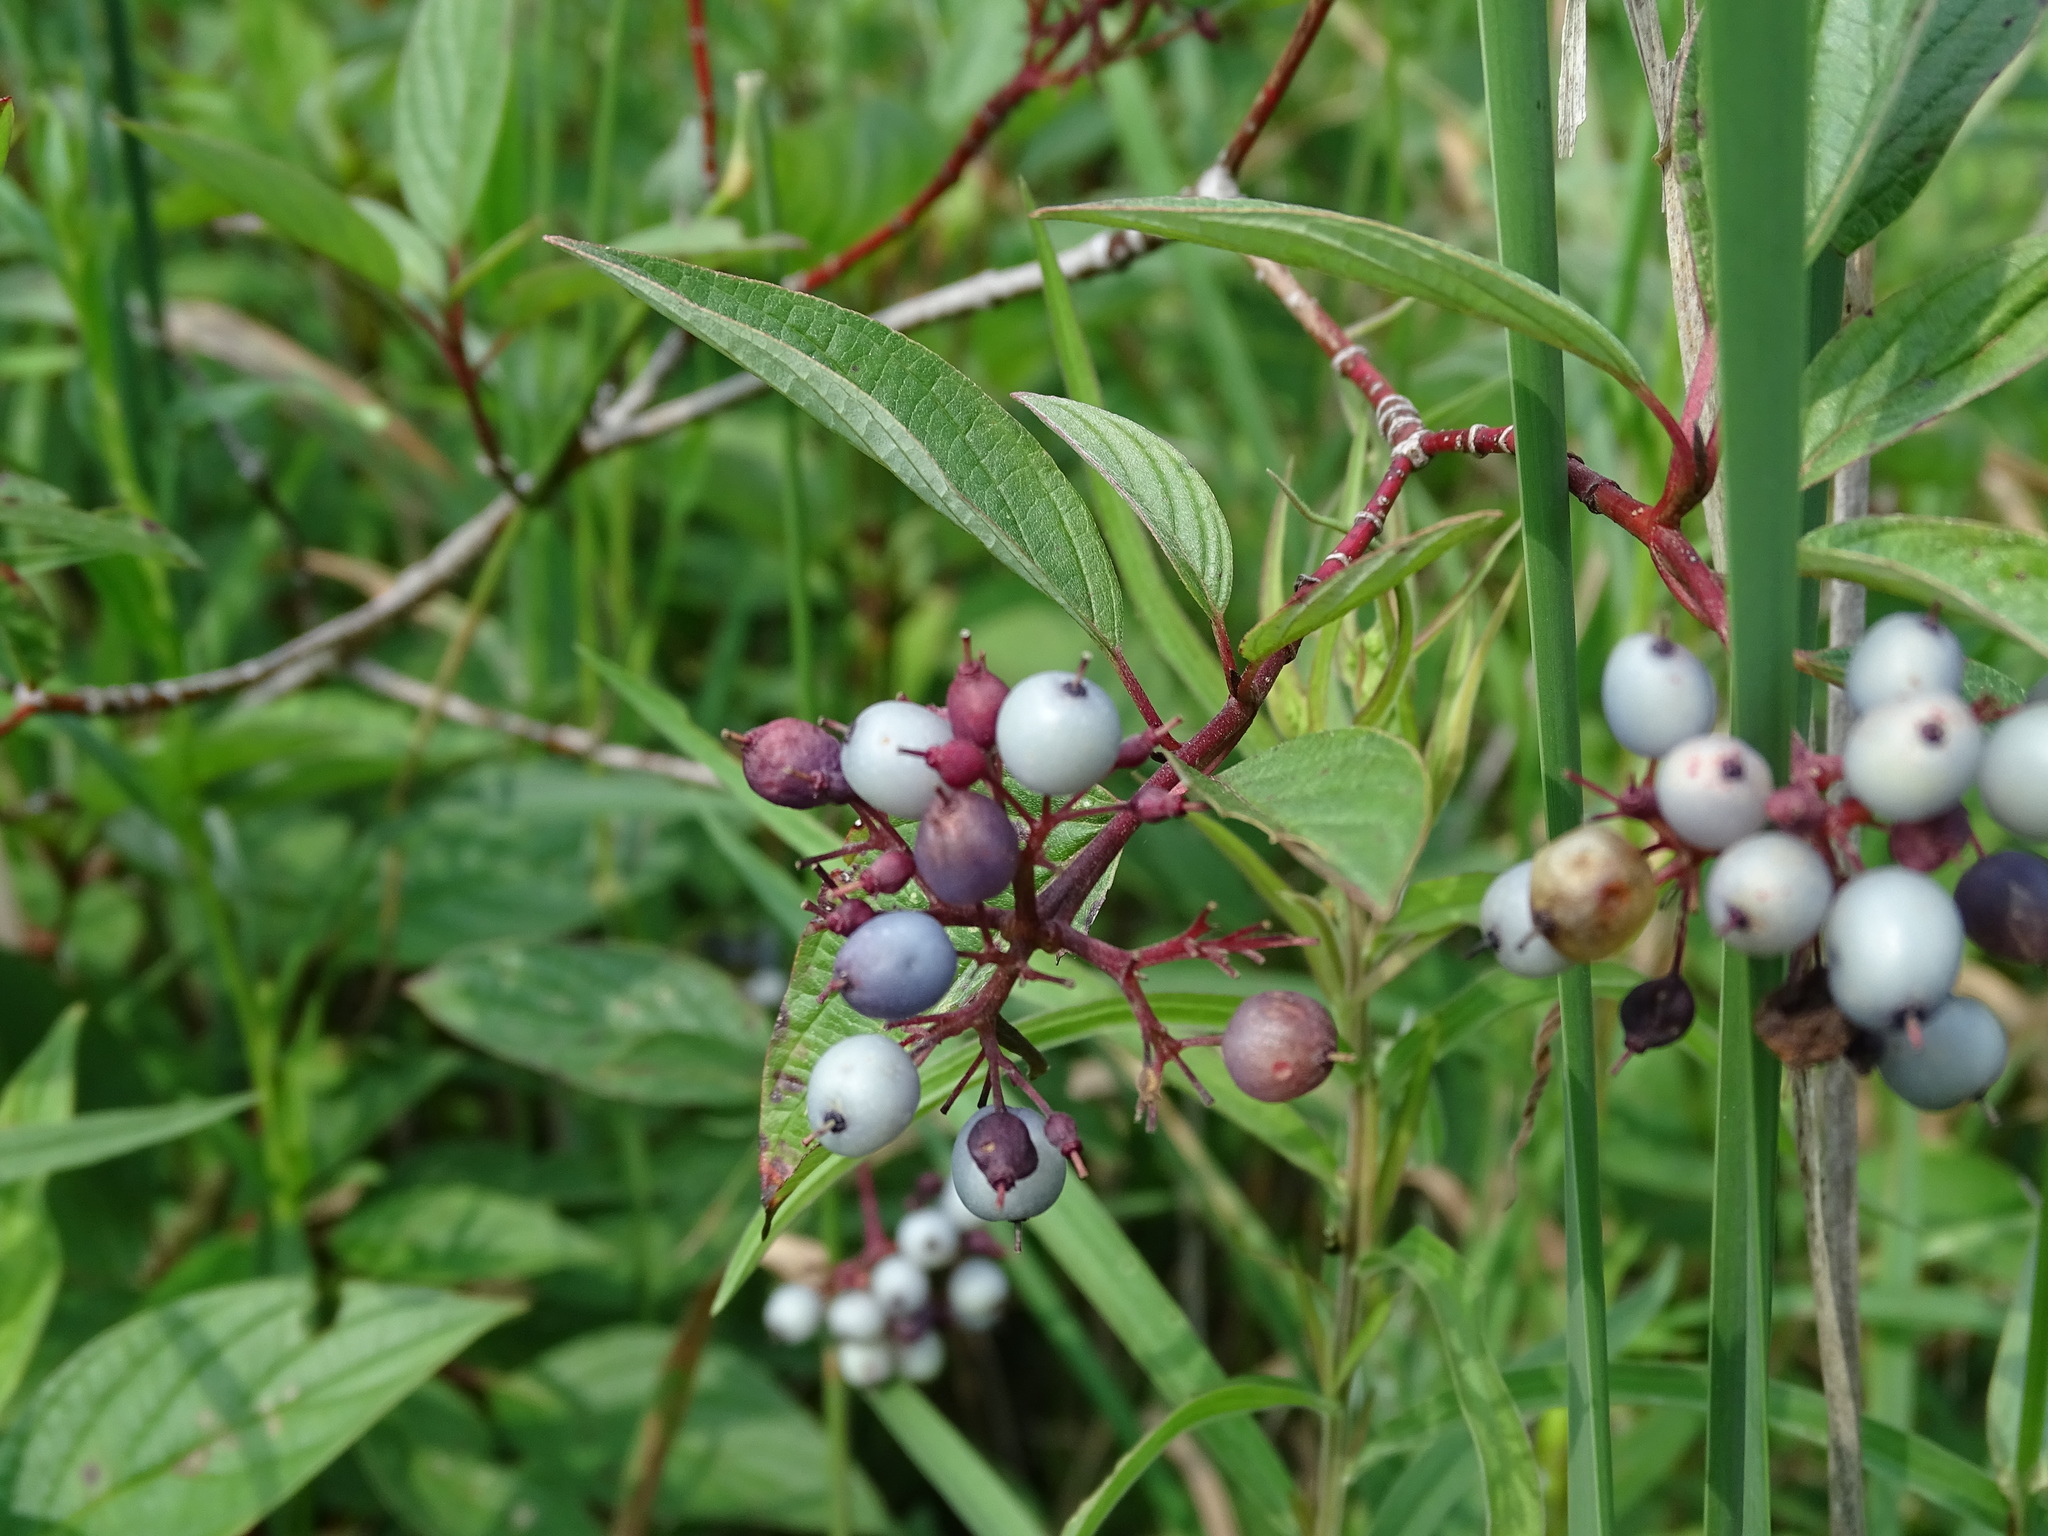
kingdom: Plantae
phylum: Tracheophyta
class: Magnoliopsida
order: Cornales
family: Cornaceae
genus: Cornus
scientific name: Cornus amomum
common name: Silky dogwood
